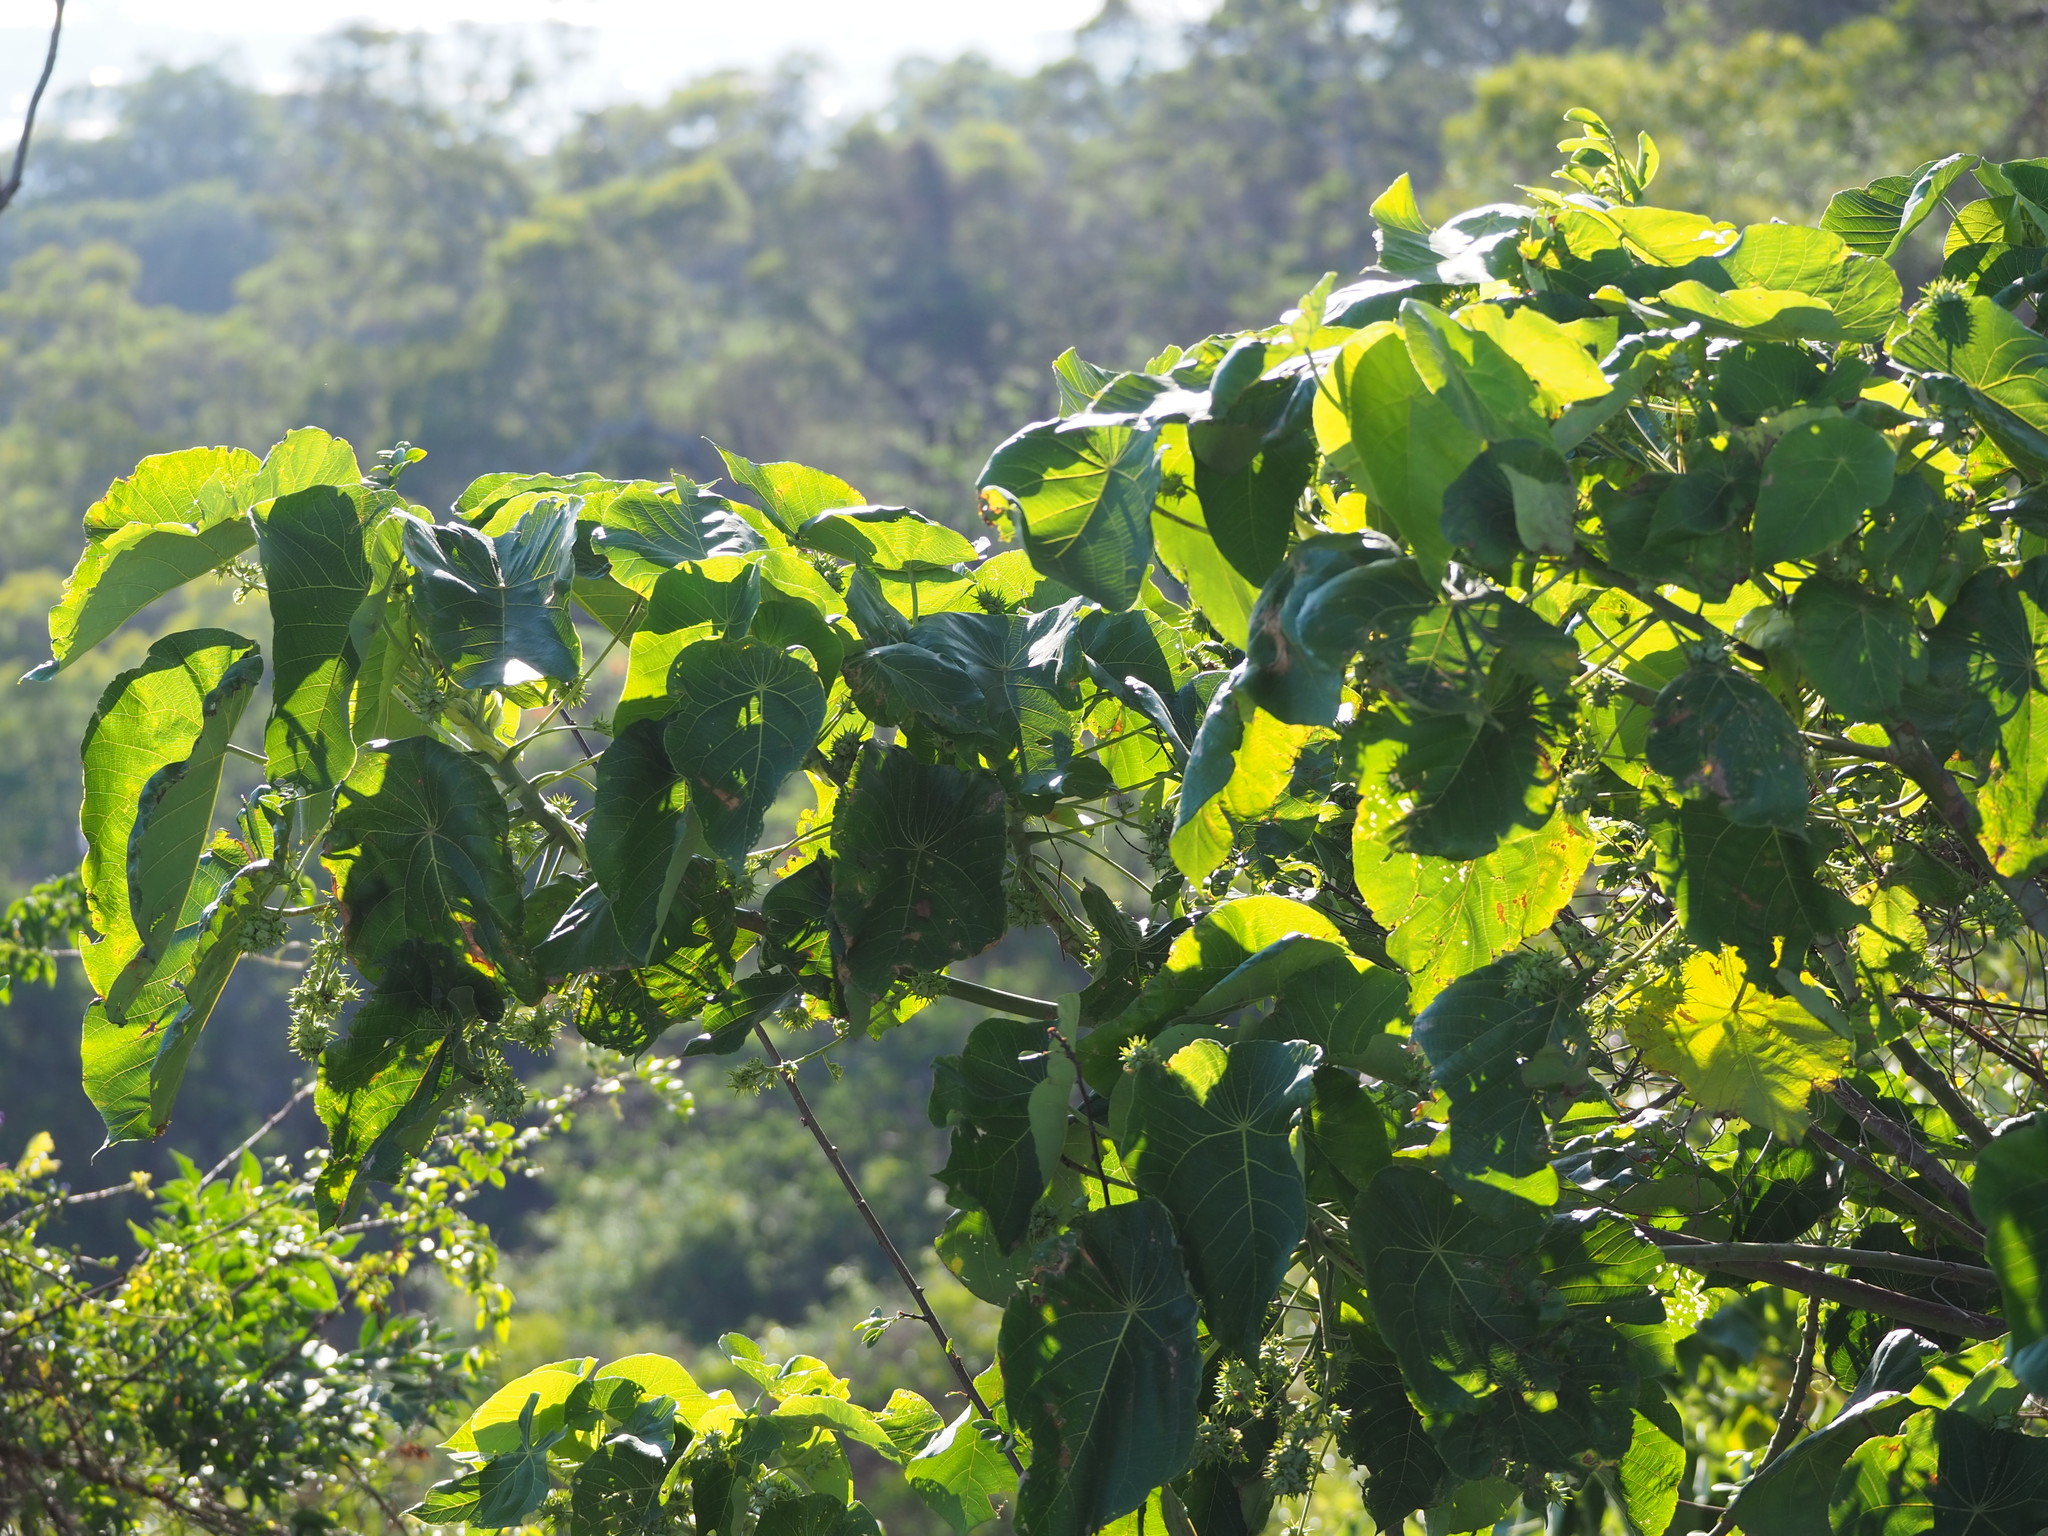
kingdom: Plantae
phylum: Tracheophyta
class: Magnoliopsida
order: Malpighiales
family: Euphorbiaceae
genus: Macaranga
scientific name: Macaranga tanarius
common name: Parasol leaf tree
